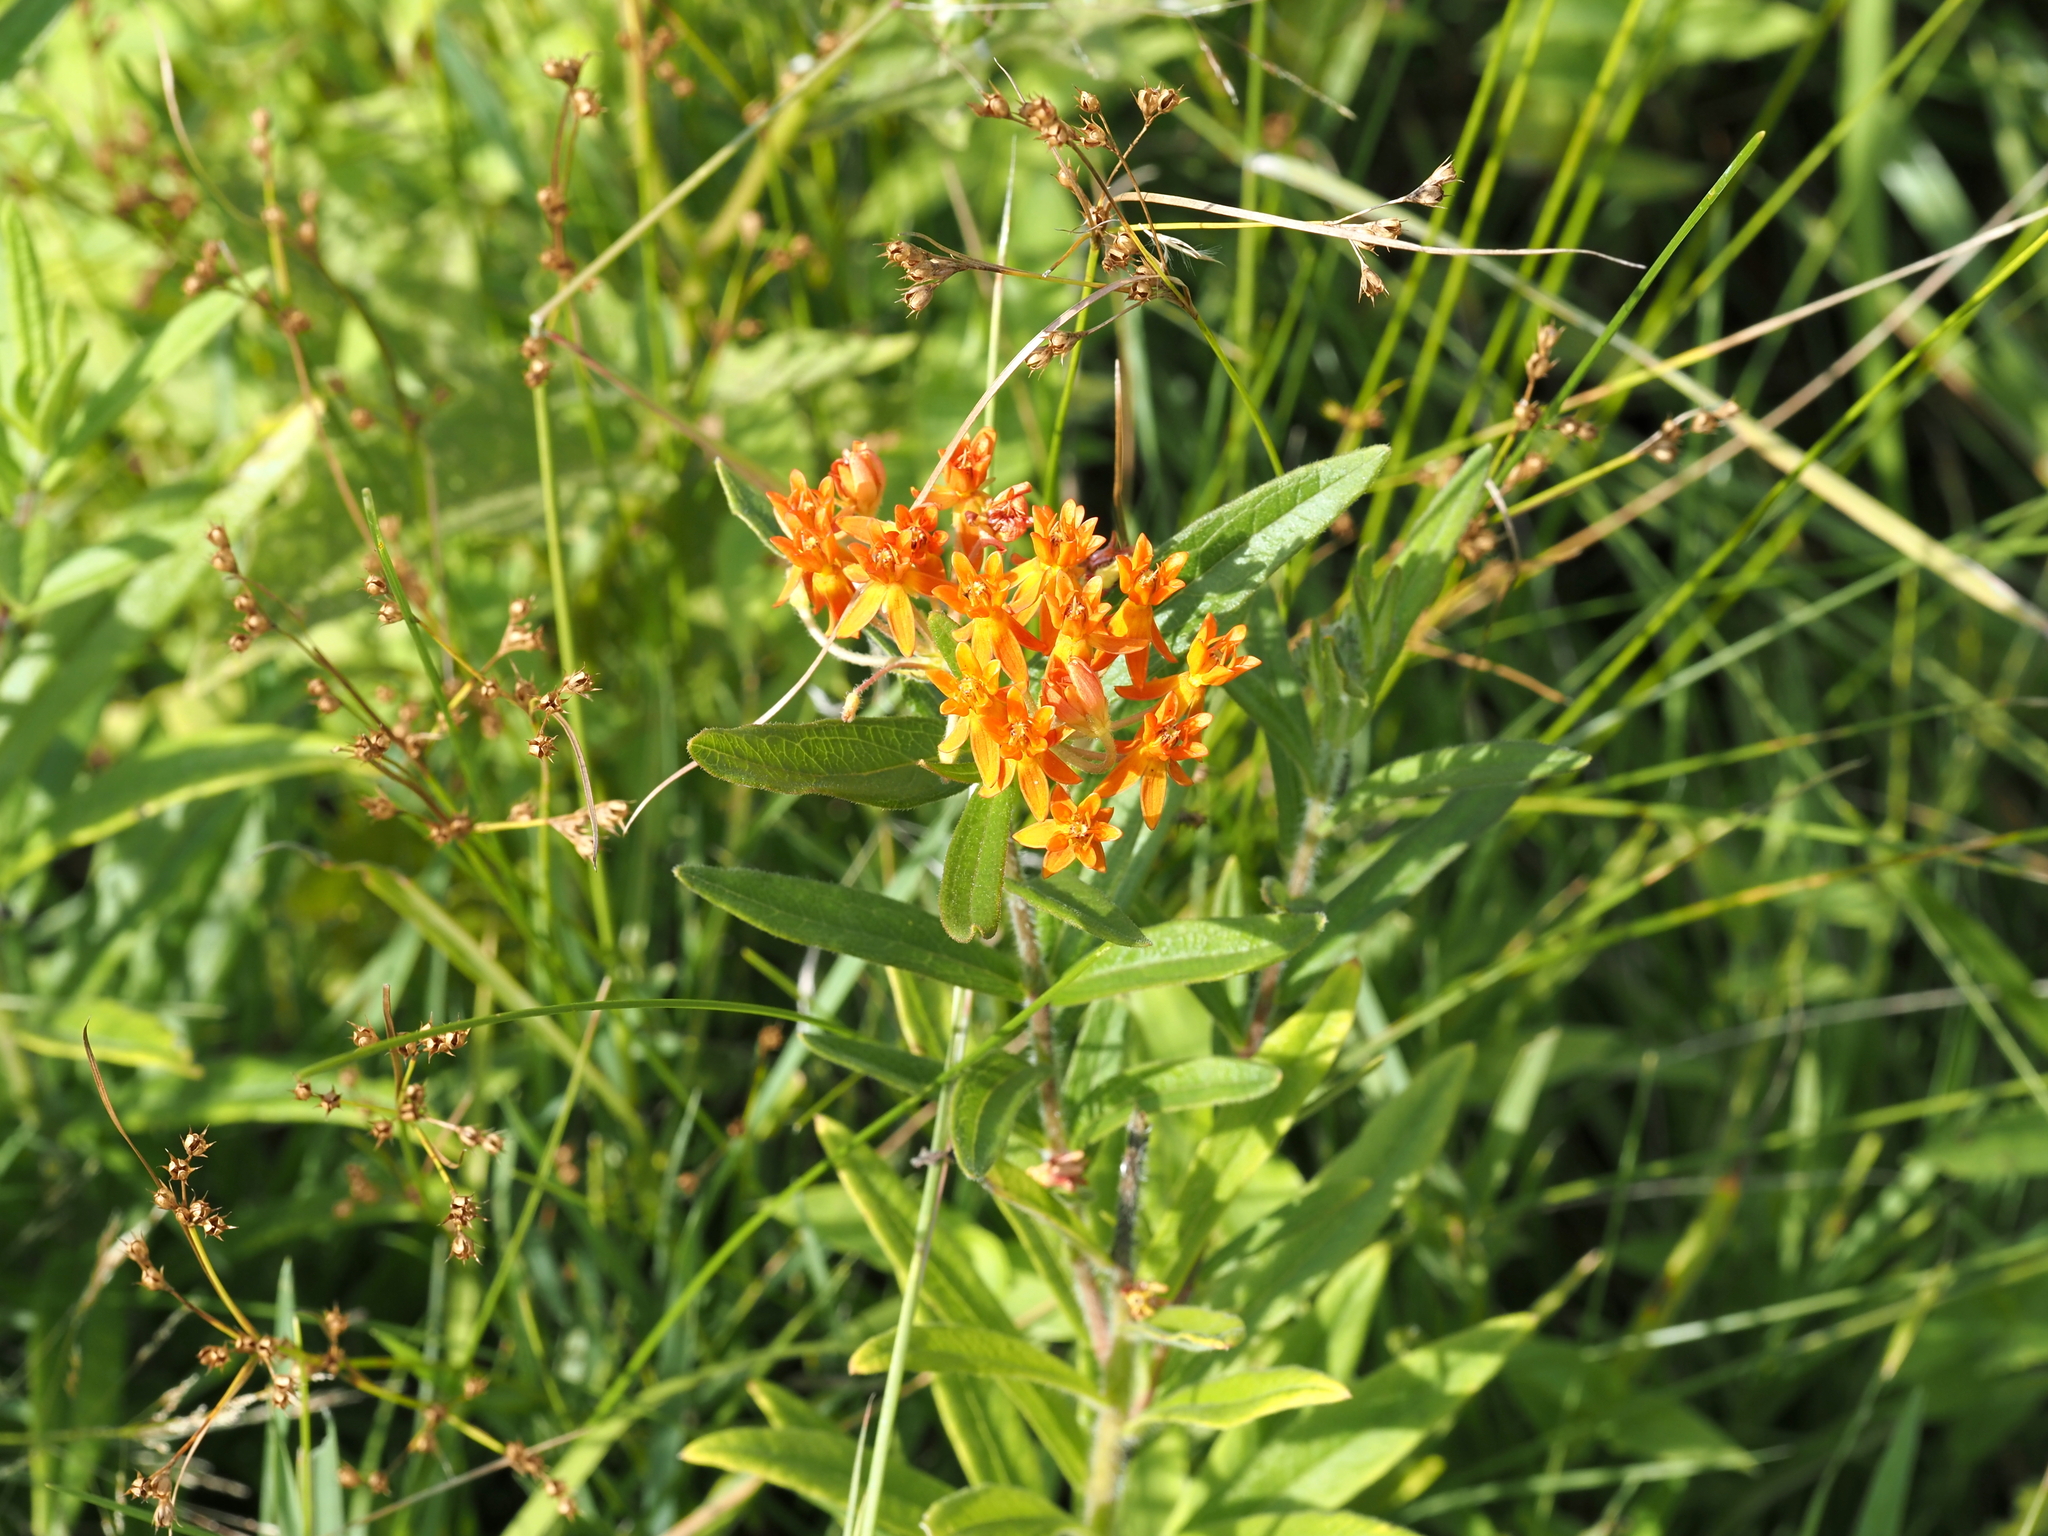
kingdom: Plantae
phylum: Tracheophyta
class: Magnoliopsida
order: Gentianales
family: Apocynaceae
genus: Asclepias
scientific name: Asclepias tuberosa
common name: Butterfly milkweed
